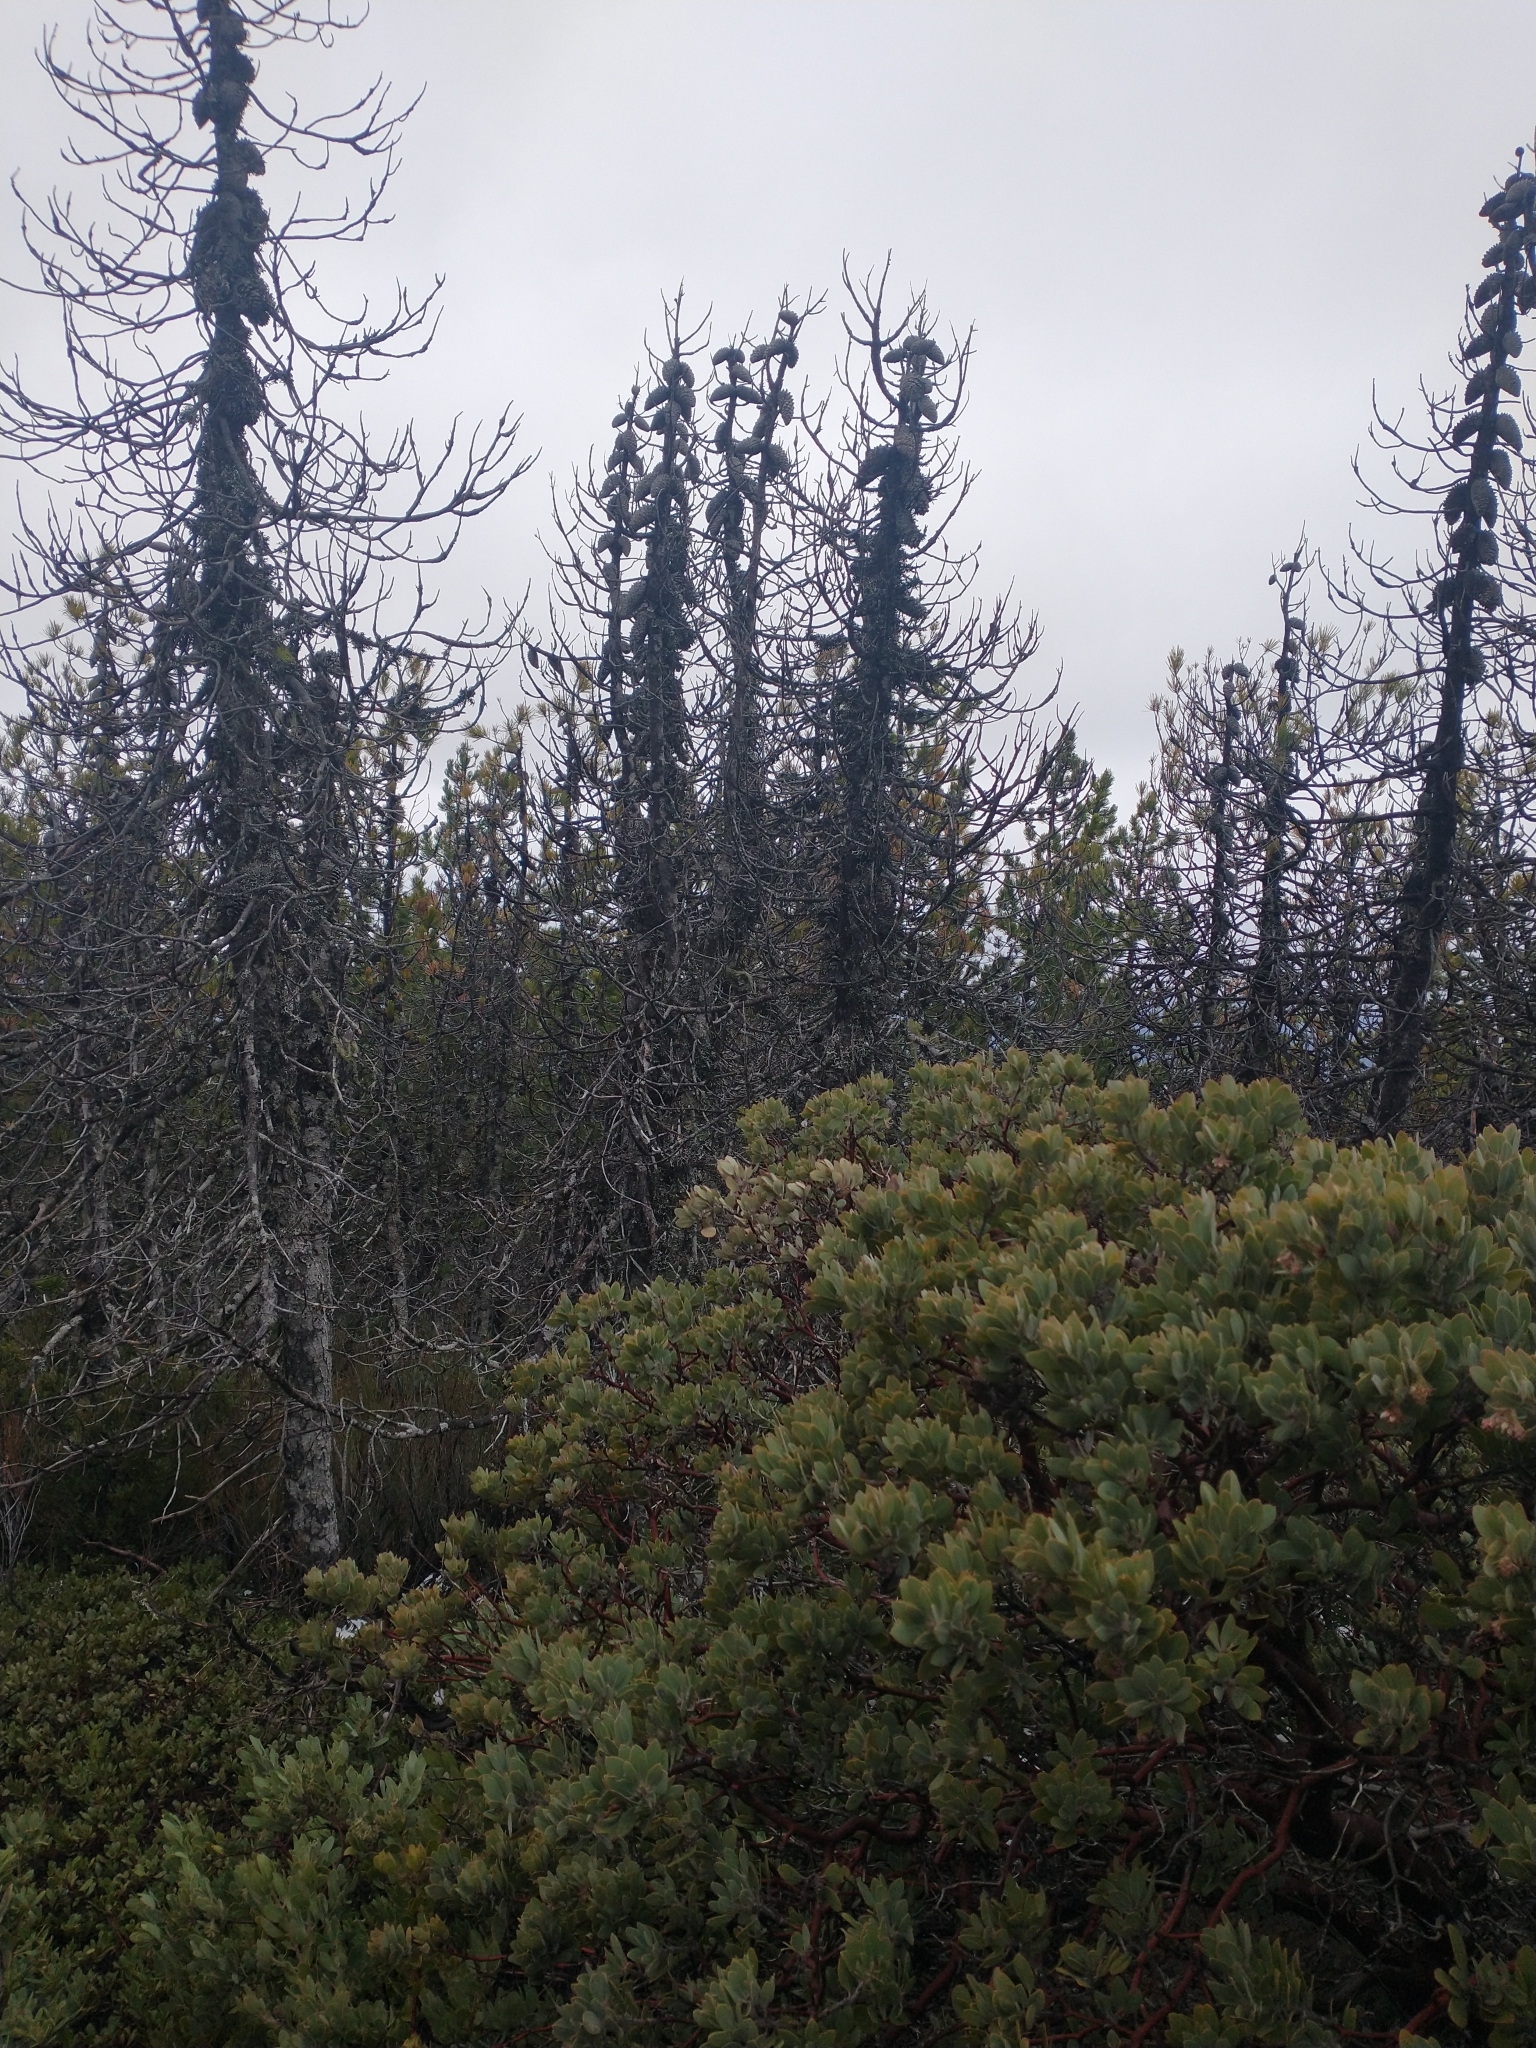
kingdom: Plantae
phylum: Tracheophyta
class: Pinopsida
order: Pinales
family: Pinaceae
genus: Pinus
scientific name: Pinus attenuata
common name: Knobcone pine
